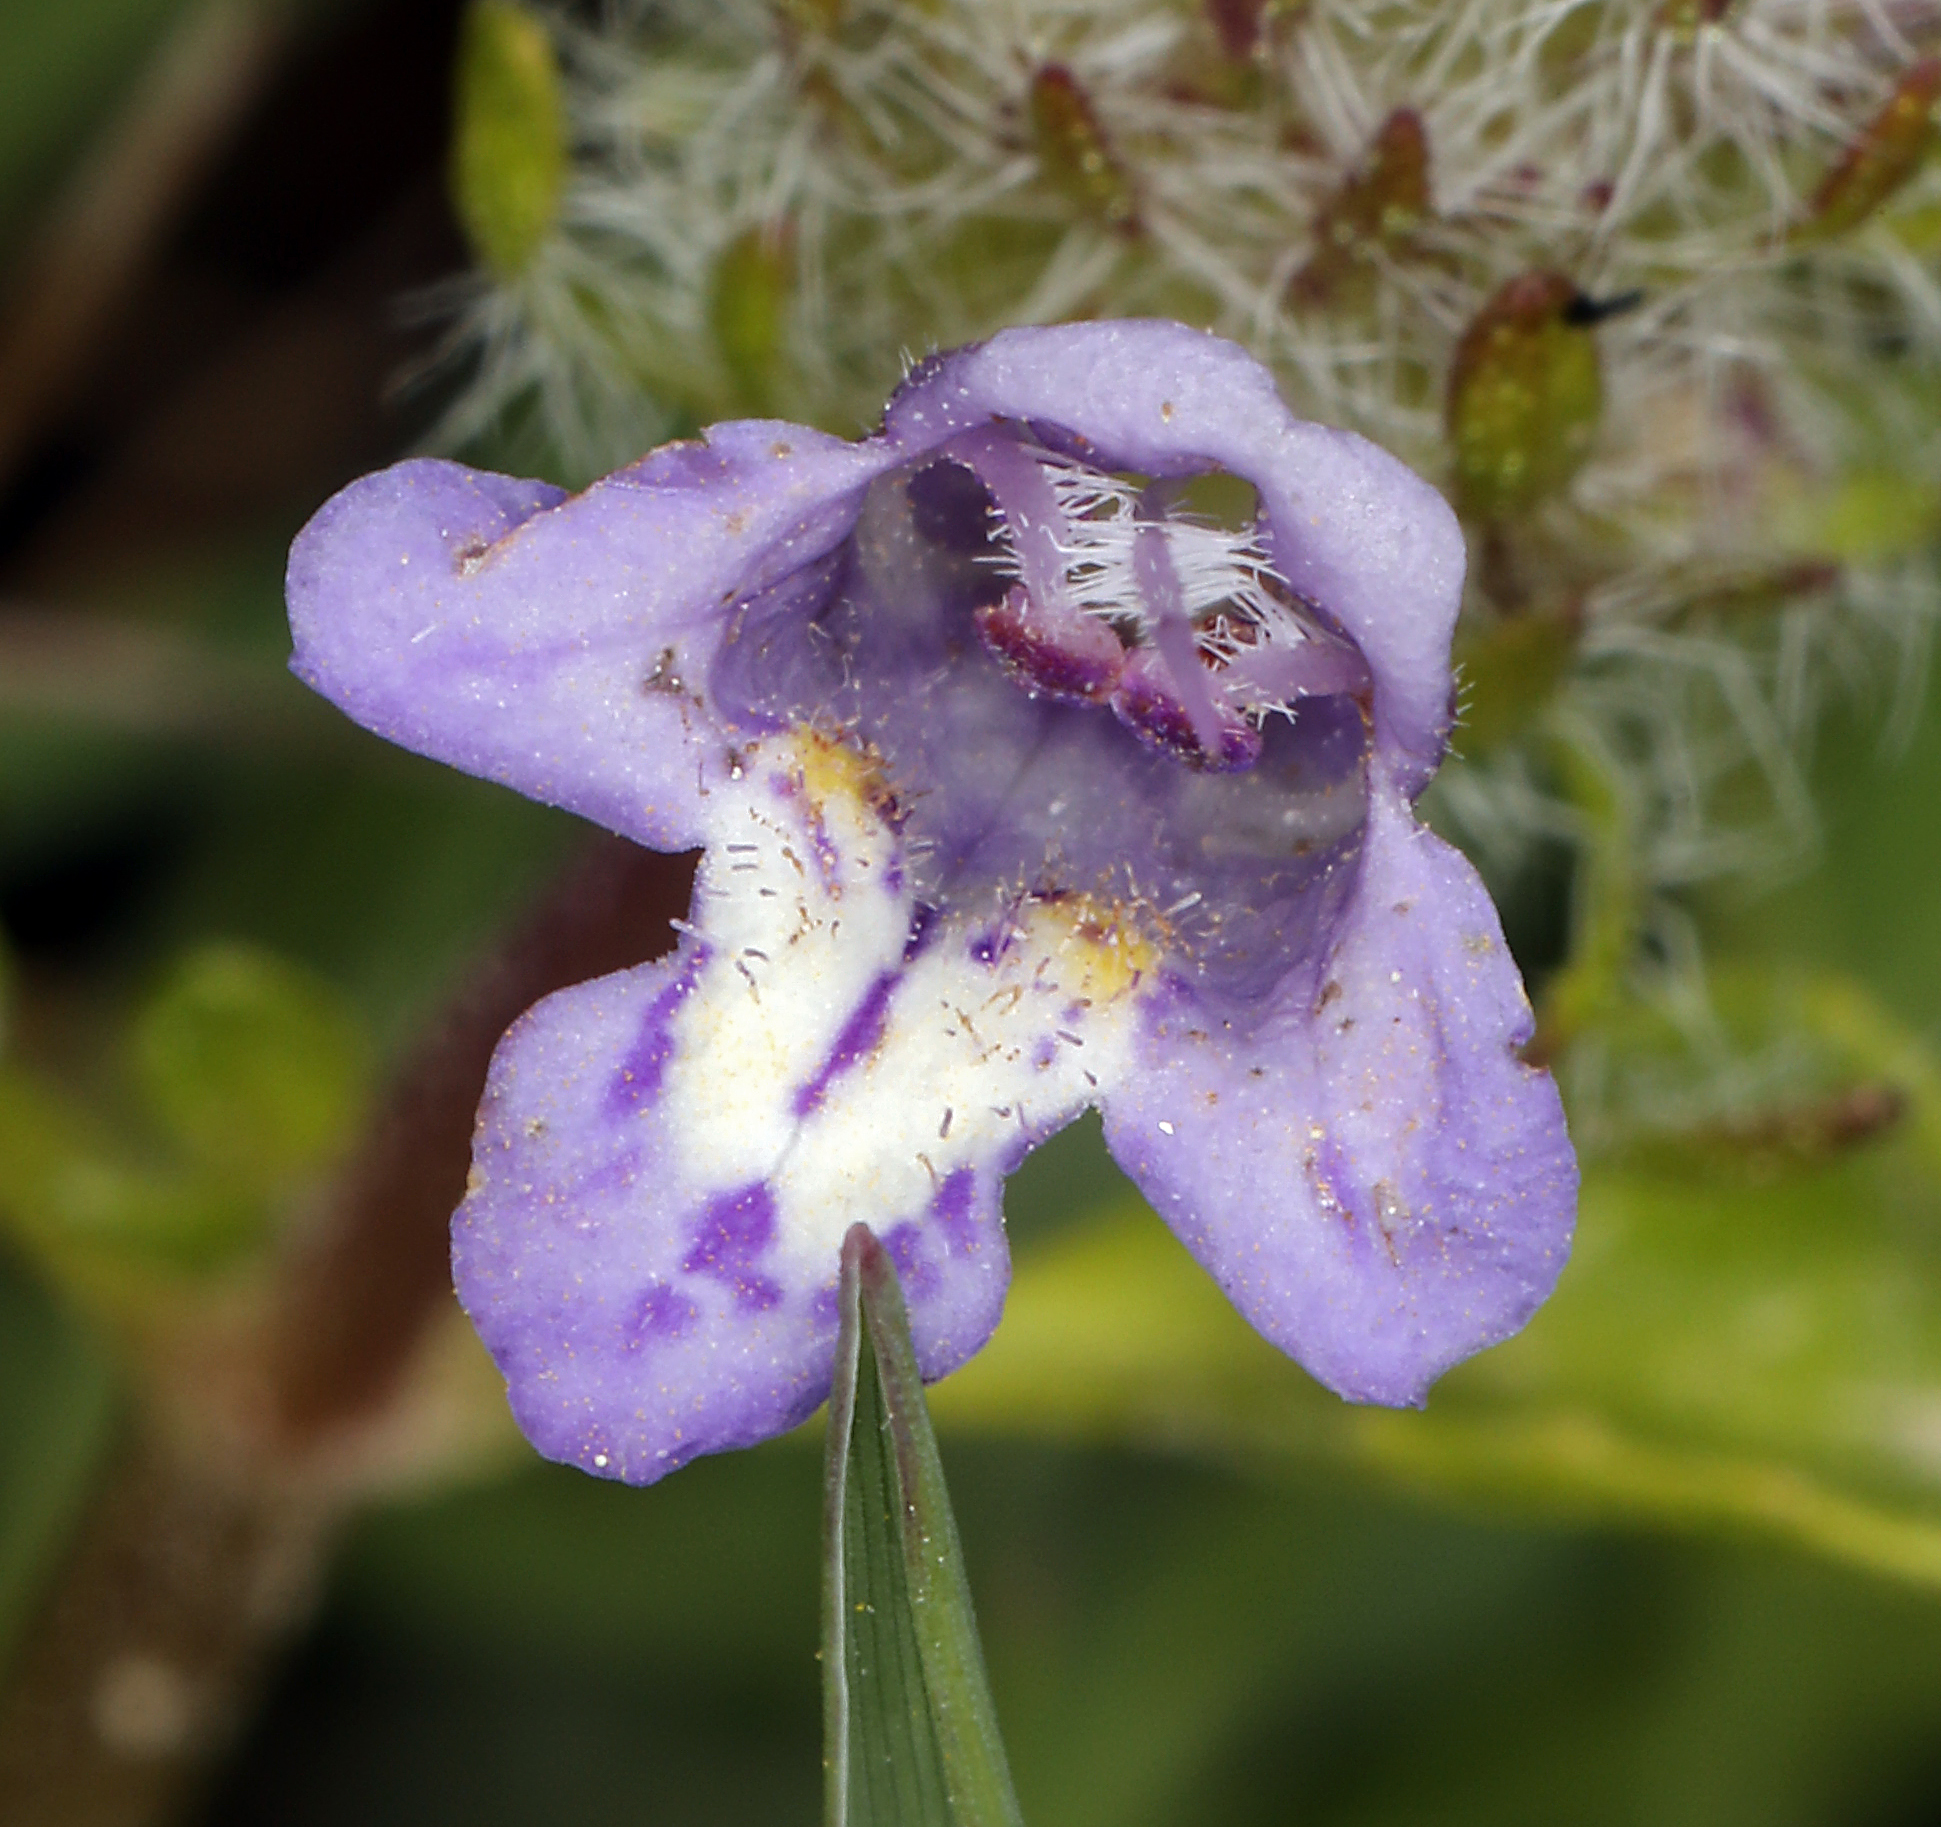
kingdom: Plantae
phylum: Tracheophyta
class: Magnoliopsida
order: Lamiales
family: Lamiaceae
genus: Pogogyne
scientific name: Pogogyne douglasii
